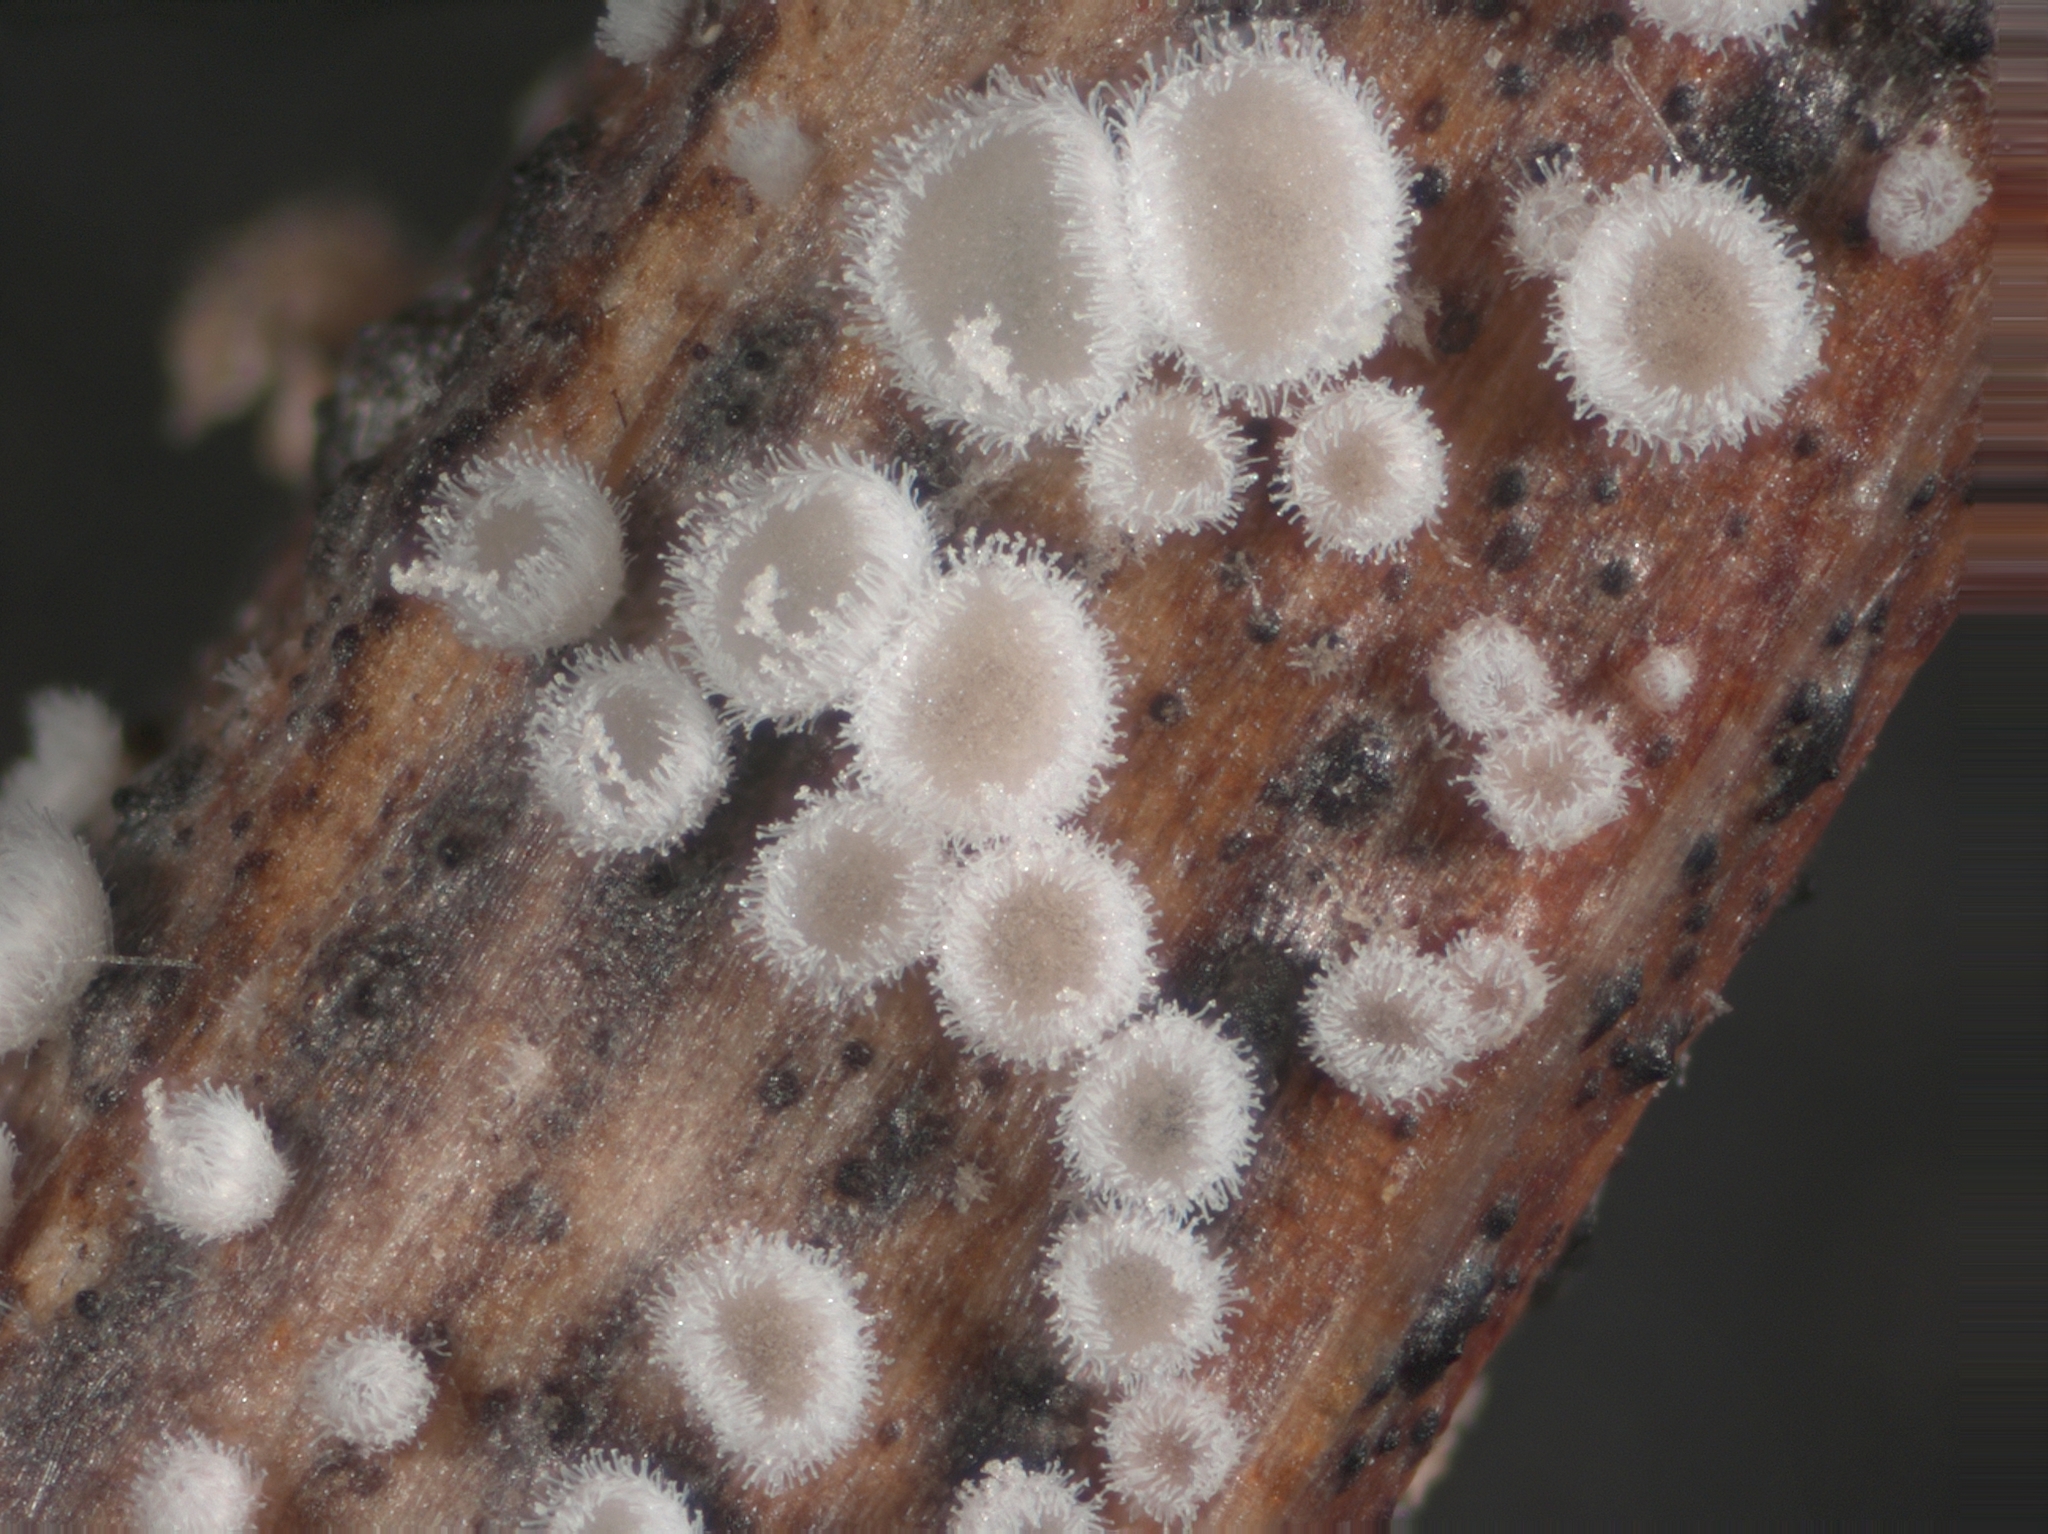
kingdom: Fungi
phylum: Basidiomycota
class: Agaricomycetes
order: Agaricales
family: Niaceae
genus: Lachnella
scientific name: Lachnella villosa
